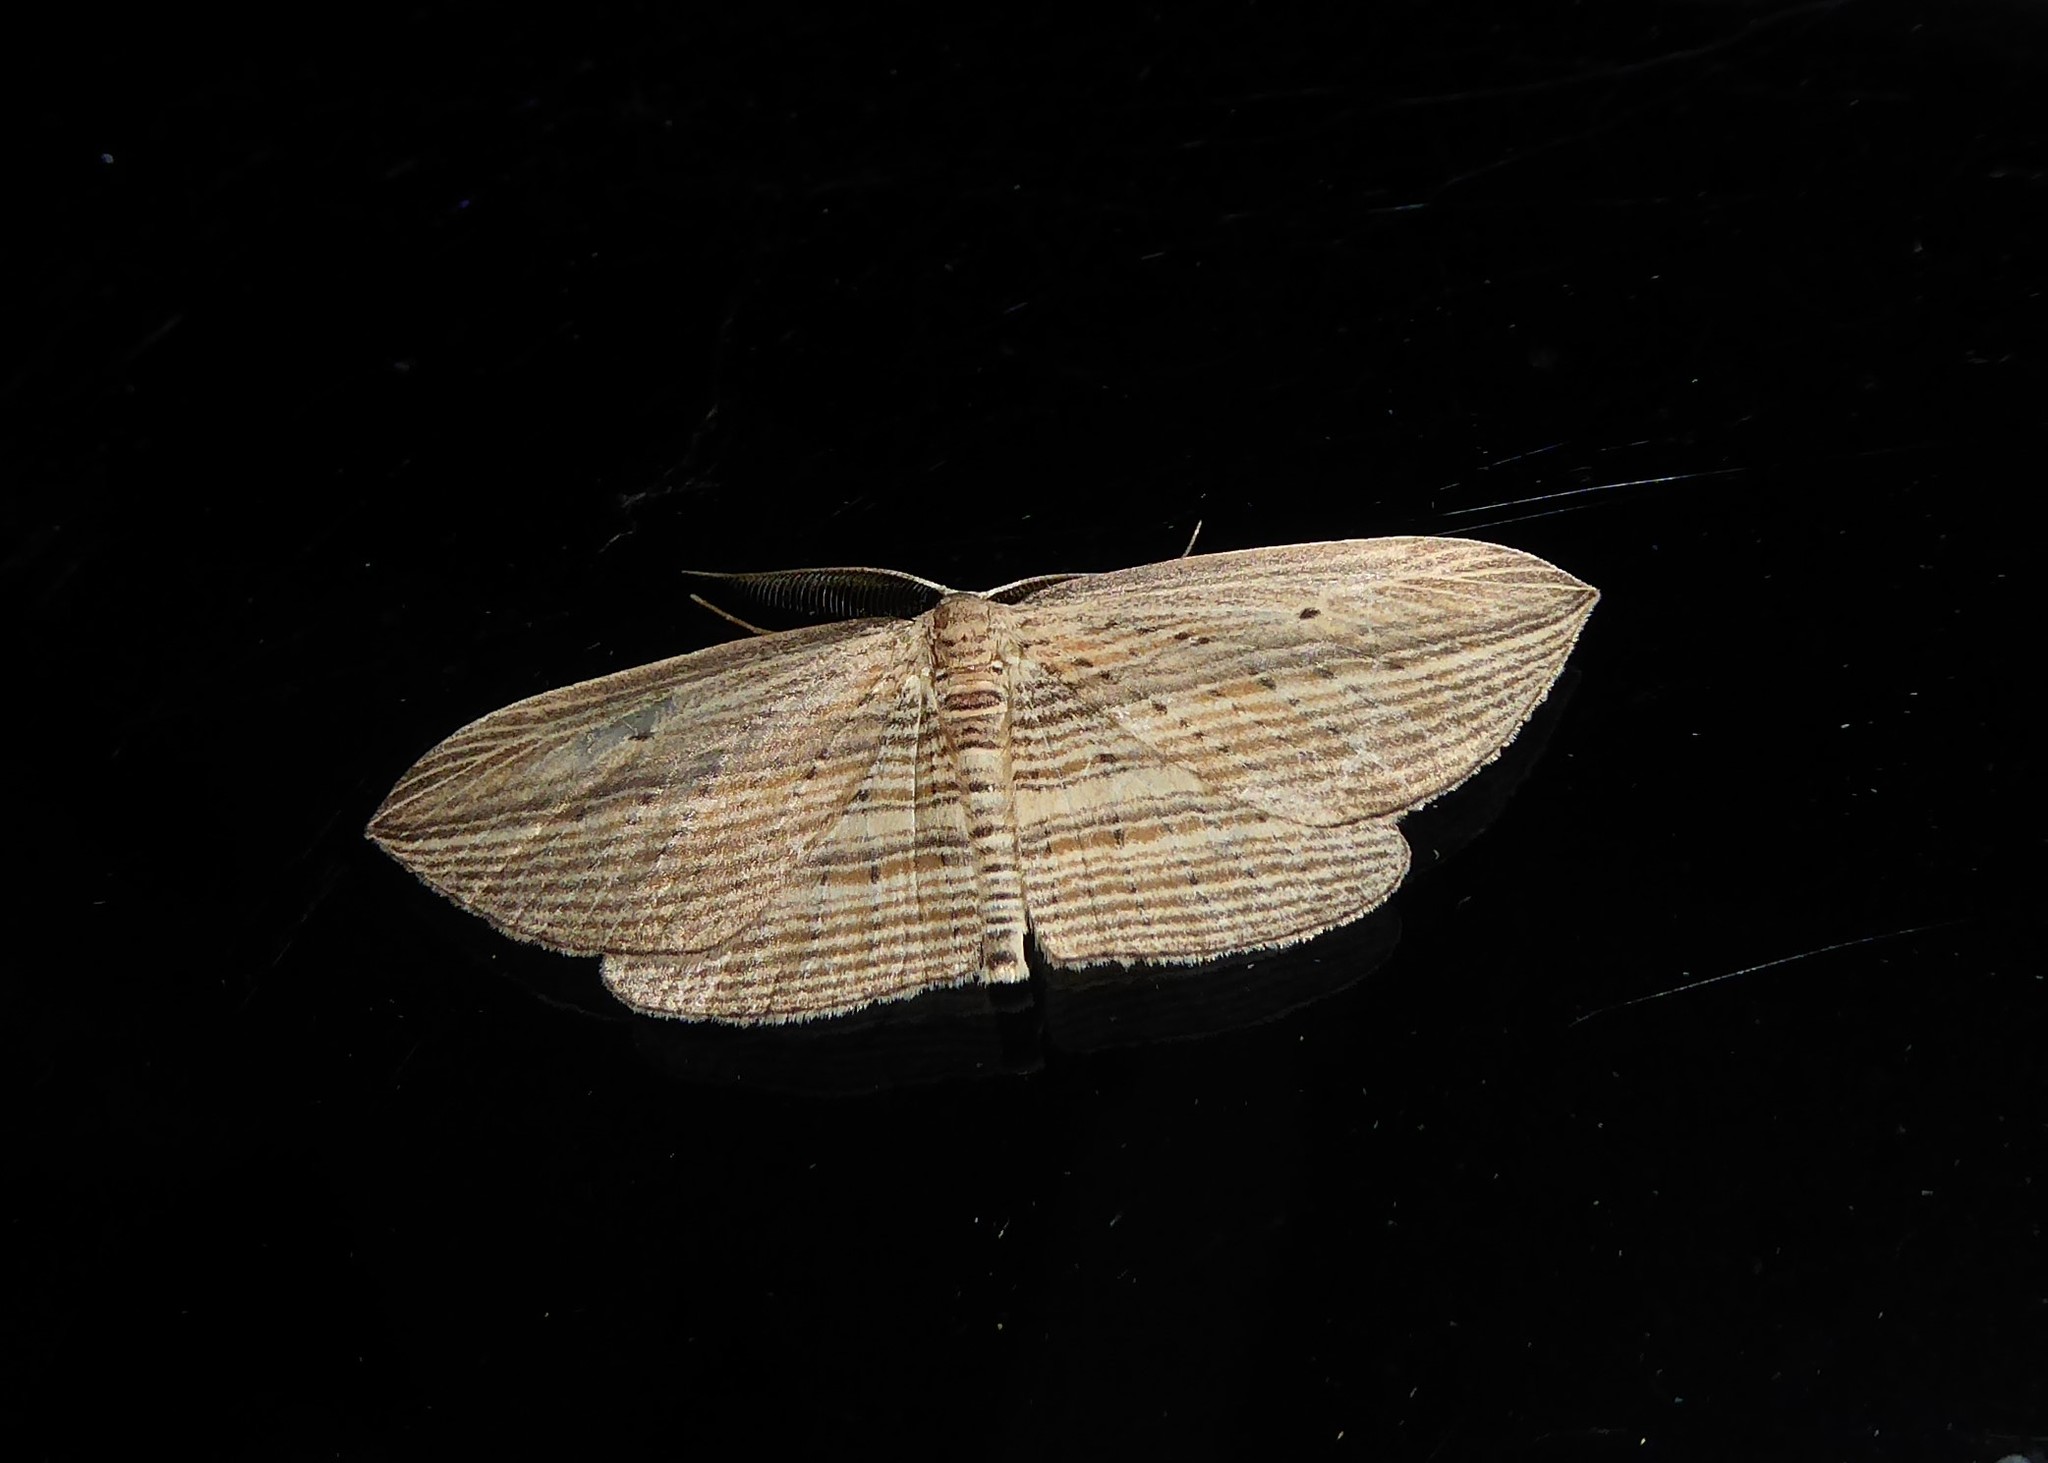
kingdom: Animalia
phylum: Arthropoda
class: Insecta
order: Lepidoptera
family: Geometridae
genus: Epiphryne
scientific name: Epiphryne verriculata
